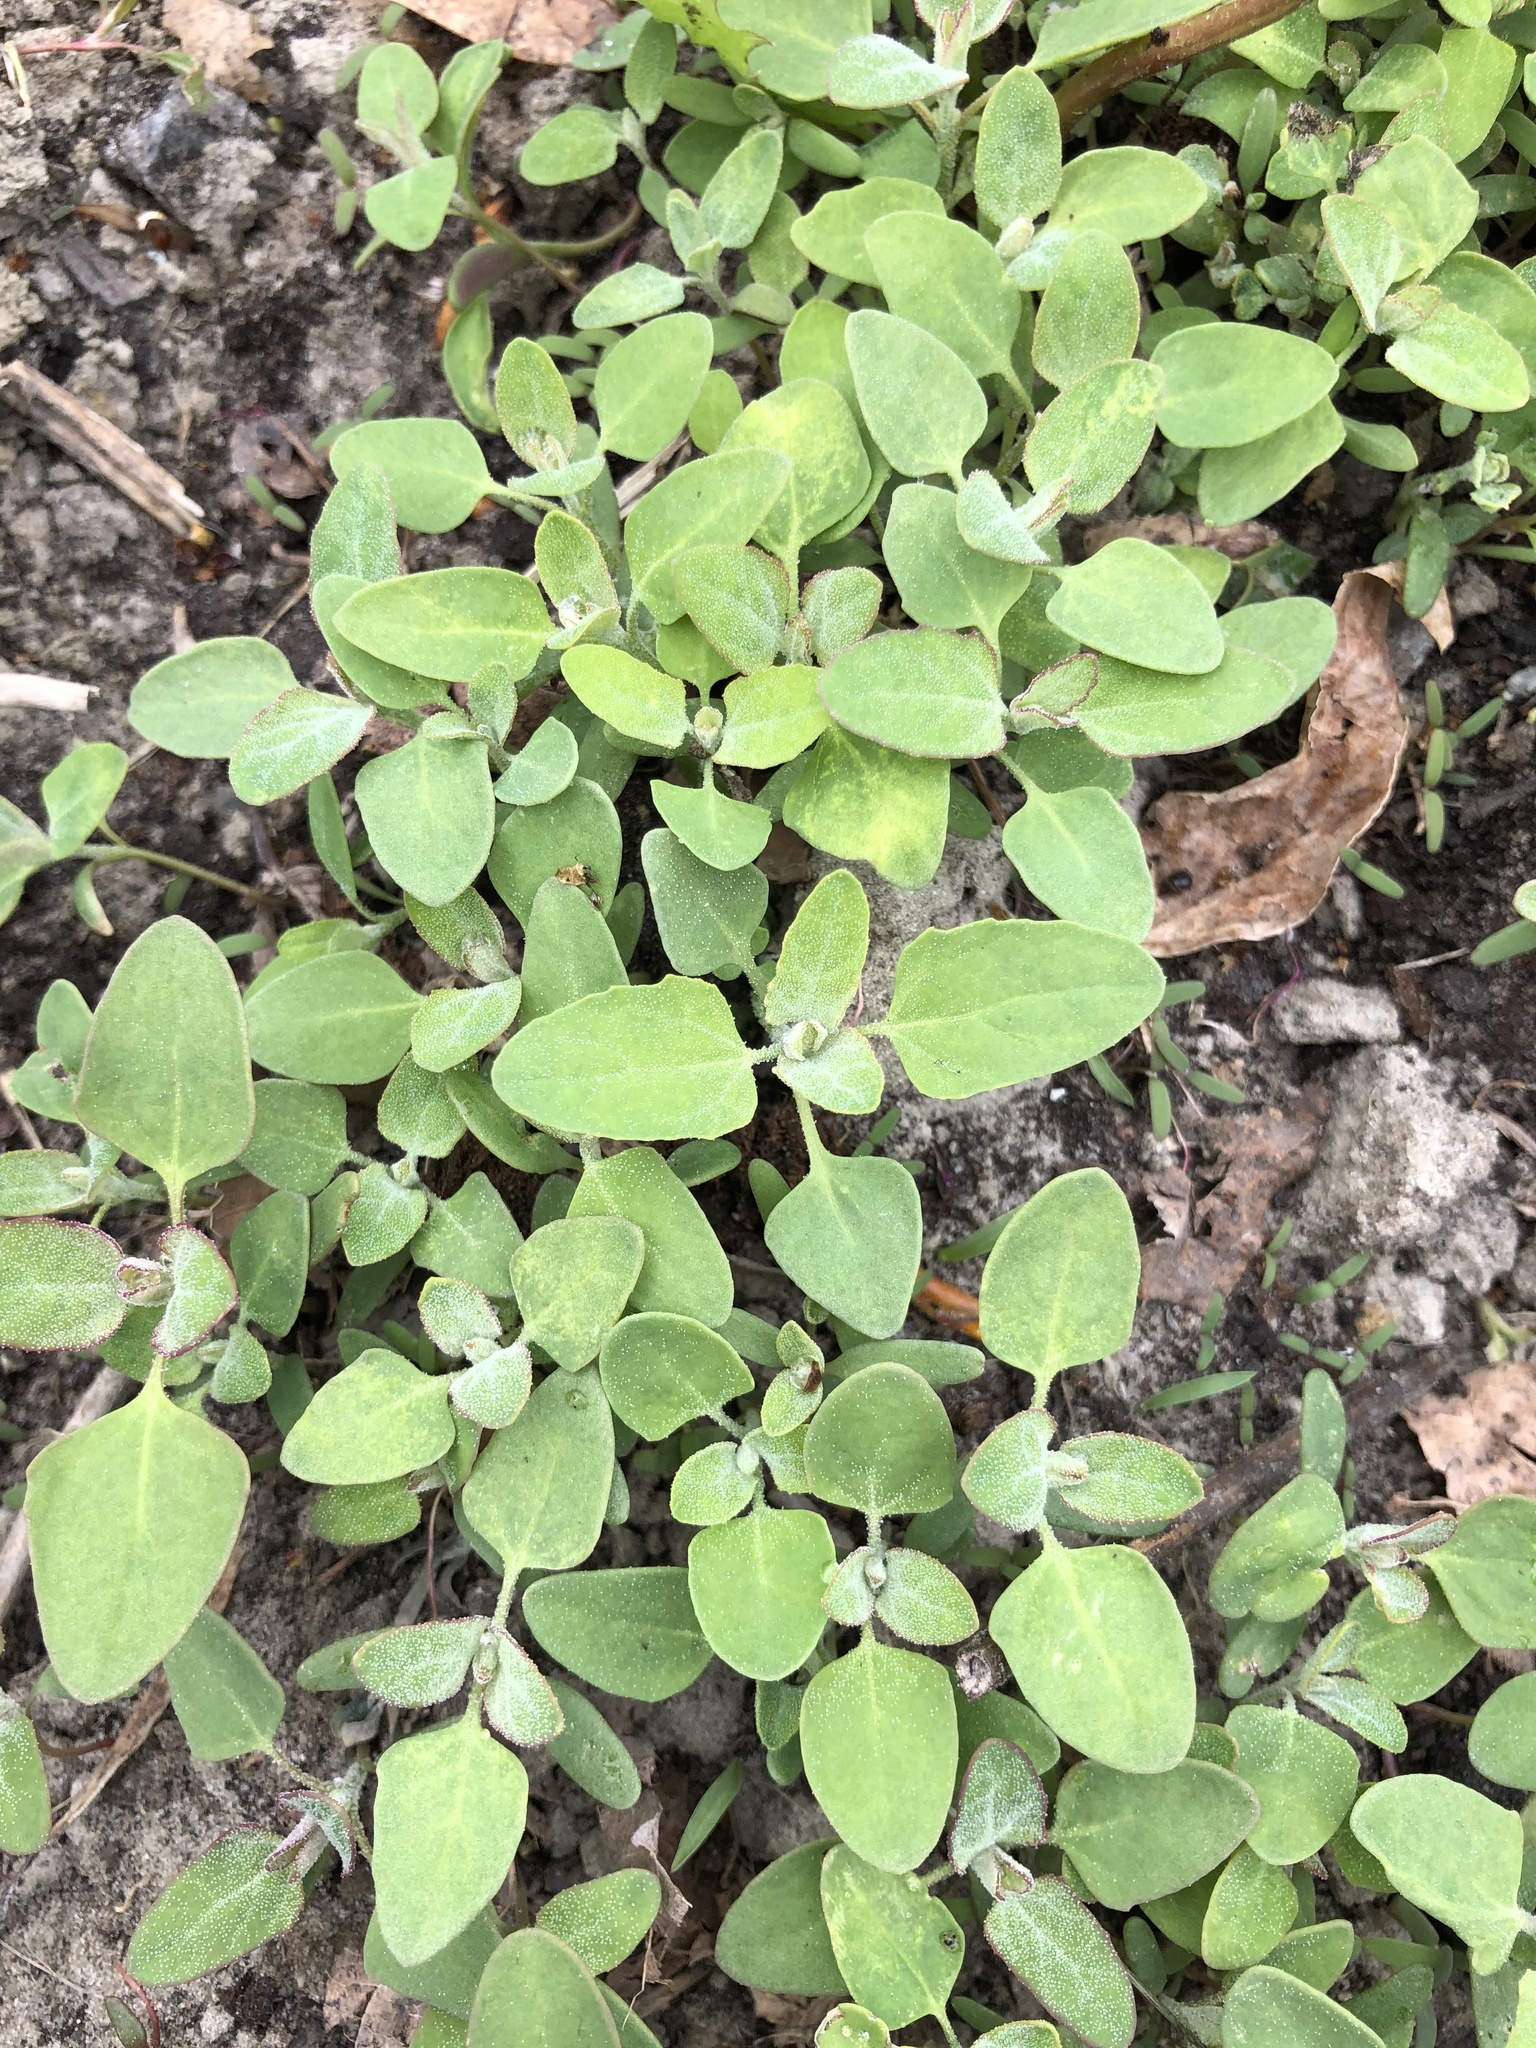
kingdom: Plantae
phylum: Tracheophyta
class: Magnoliopsida
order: Caryophyllales
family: Amaranthaceae
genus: Chenopodium
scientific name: Chenopodium album
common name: Fat-hen
